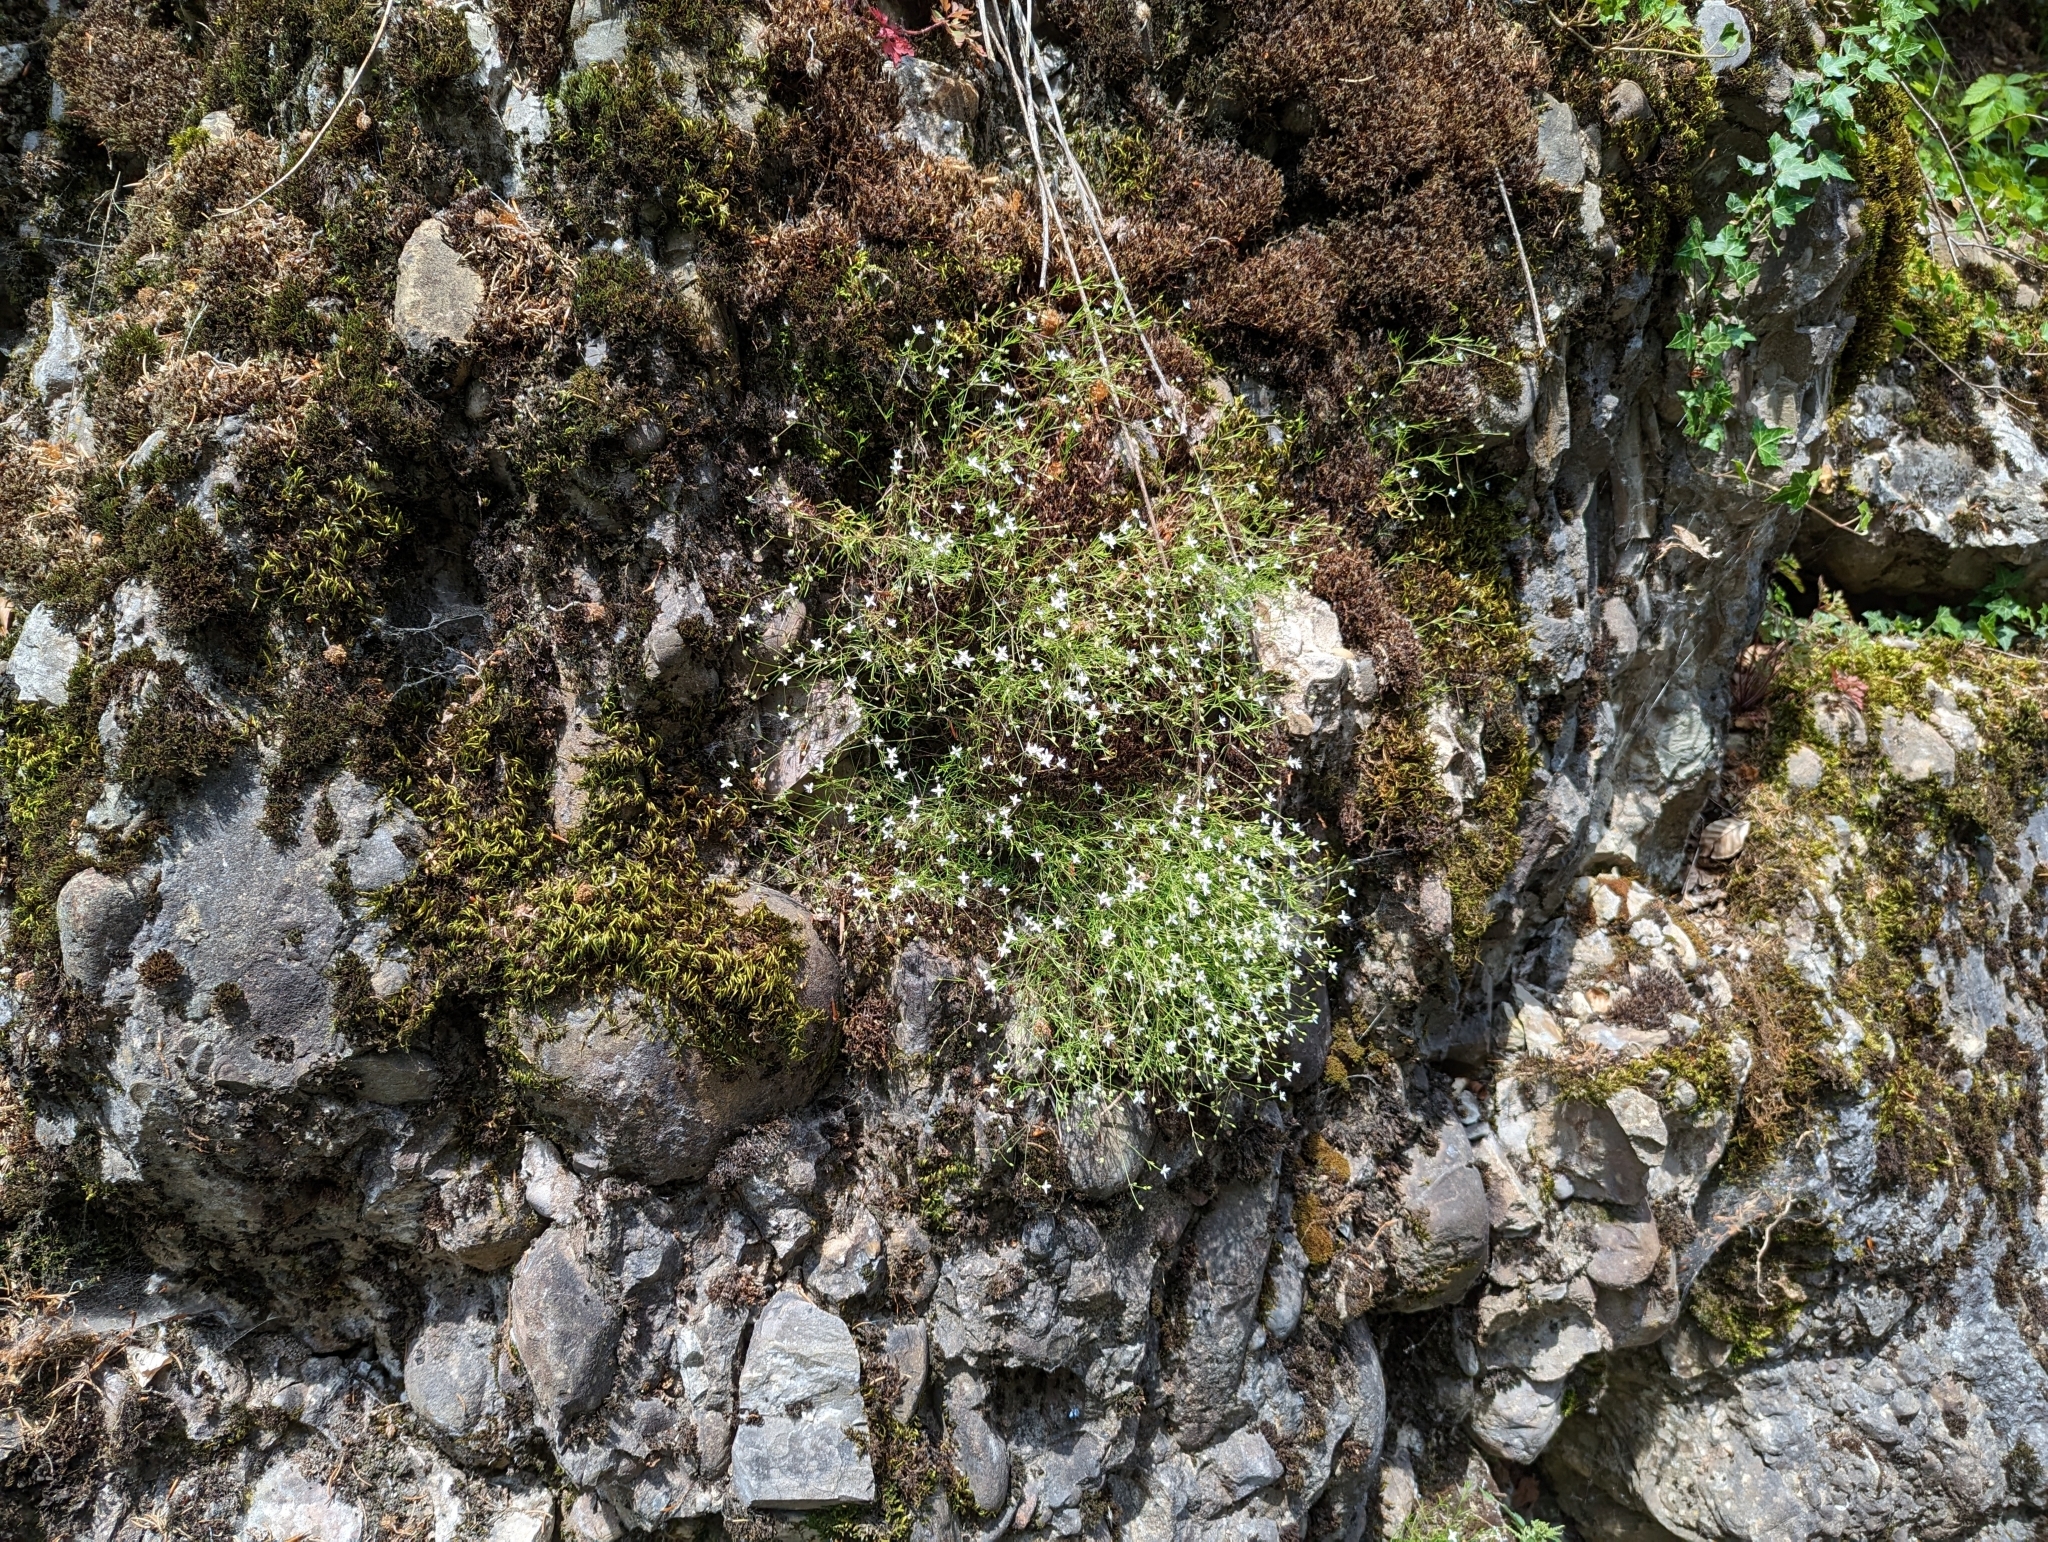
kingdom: Plantae
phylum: Tracheophyta
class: Magnoliopsida
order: Caryophyllales
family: Caryophyllaceae
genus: Moehringia
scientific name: Moehringia muscosa
